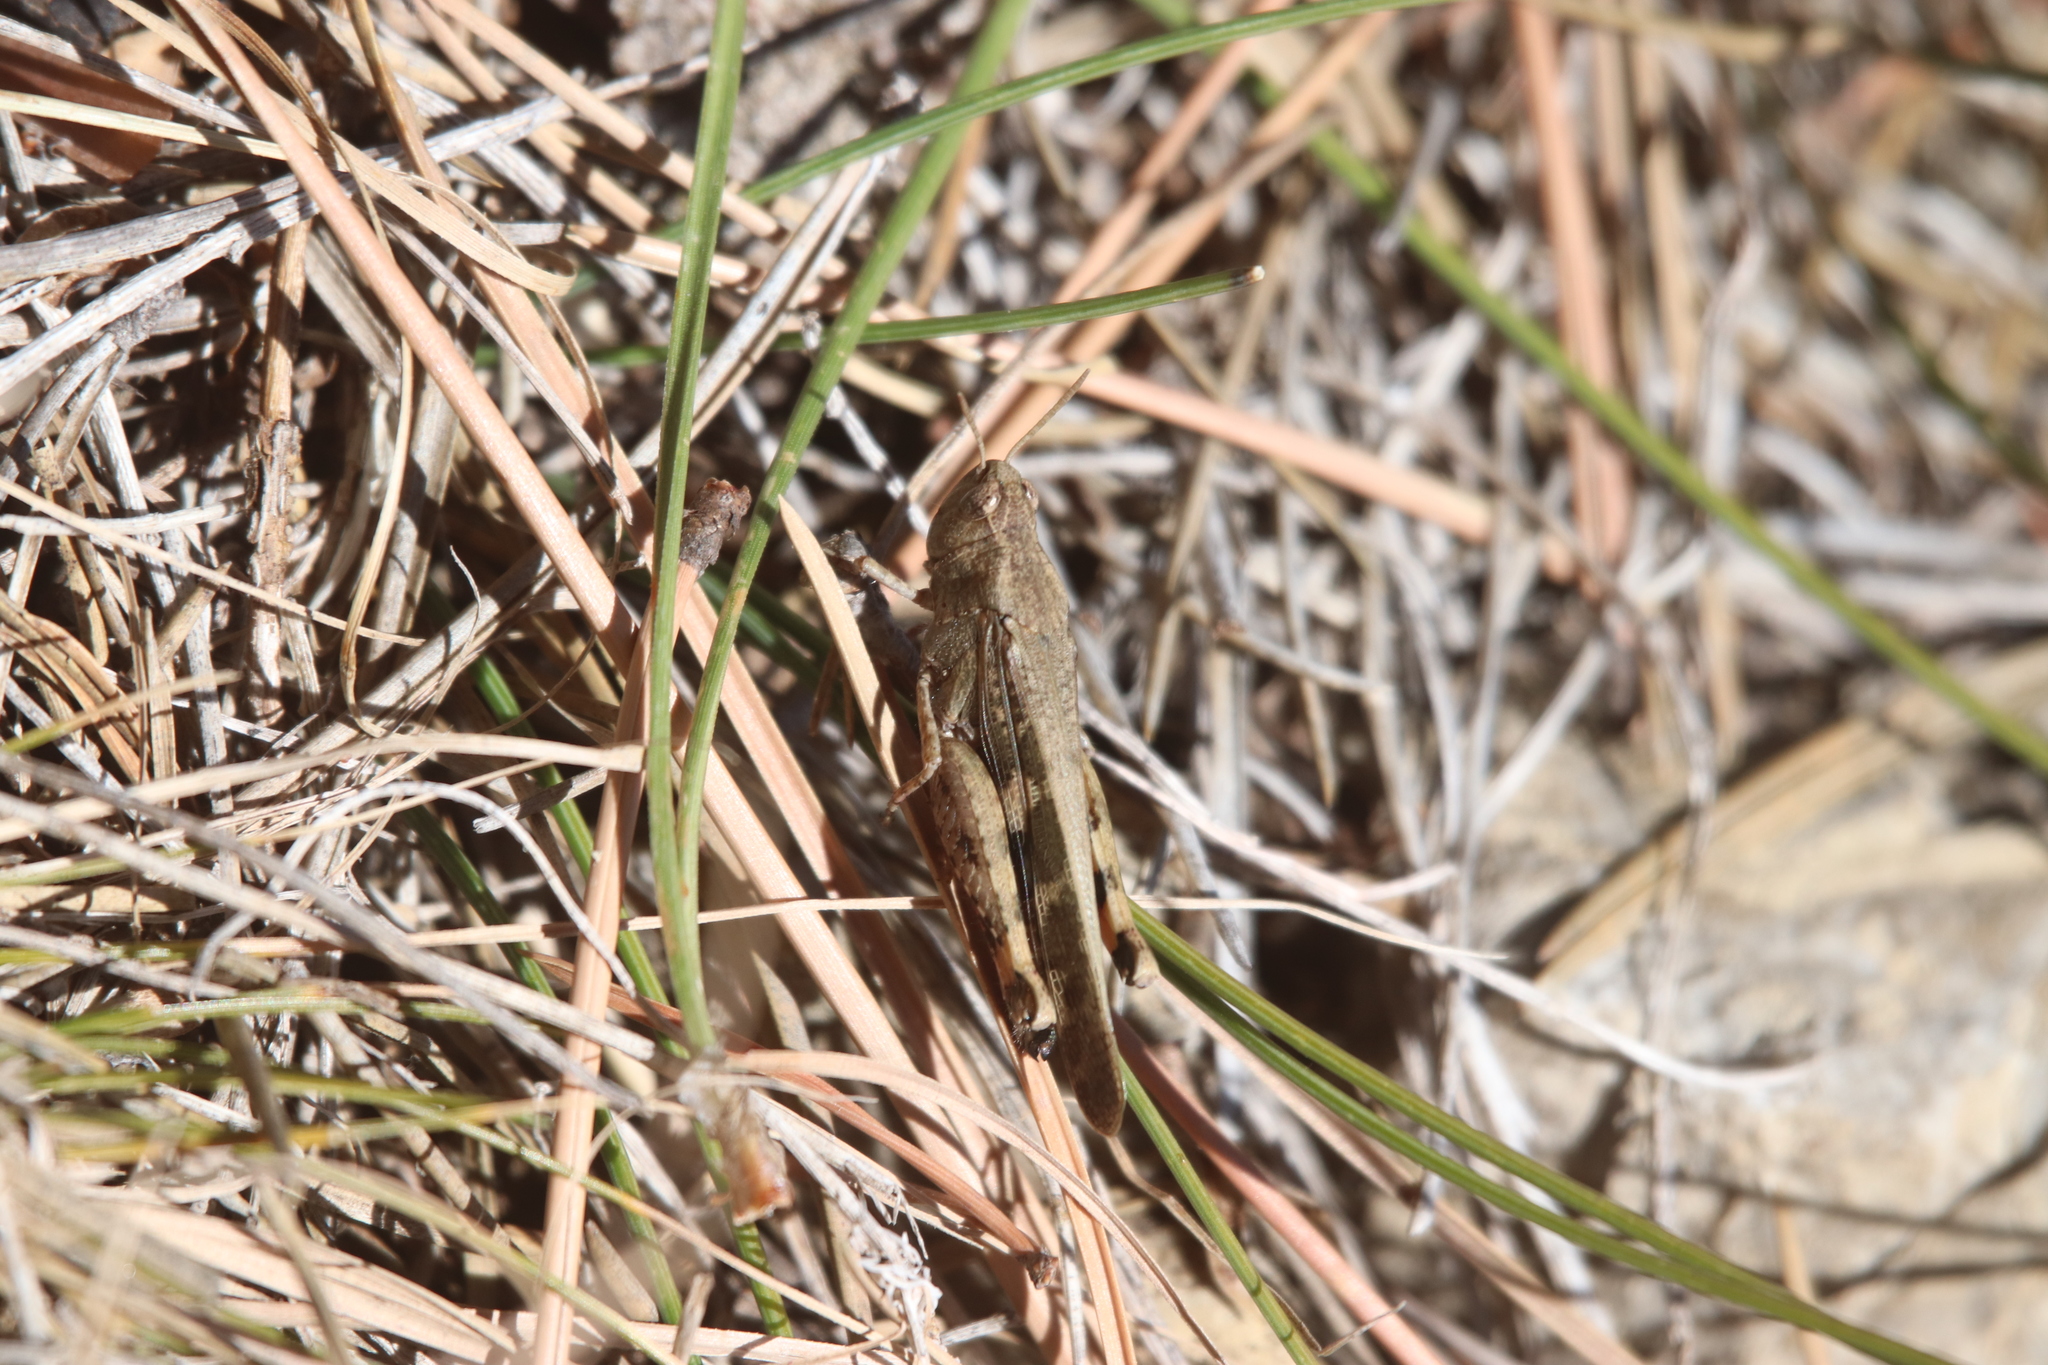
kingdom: Animalia
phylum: Arthropoda
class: Insecta
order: Orthoptera
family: Acrididae
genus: Aiolopus
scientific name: Aiolopus strepens
